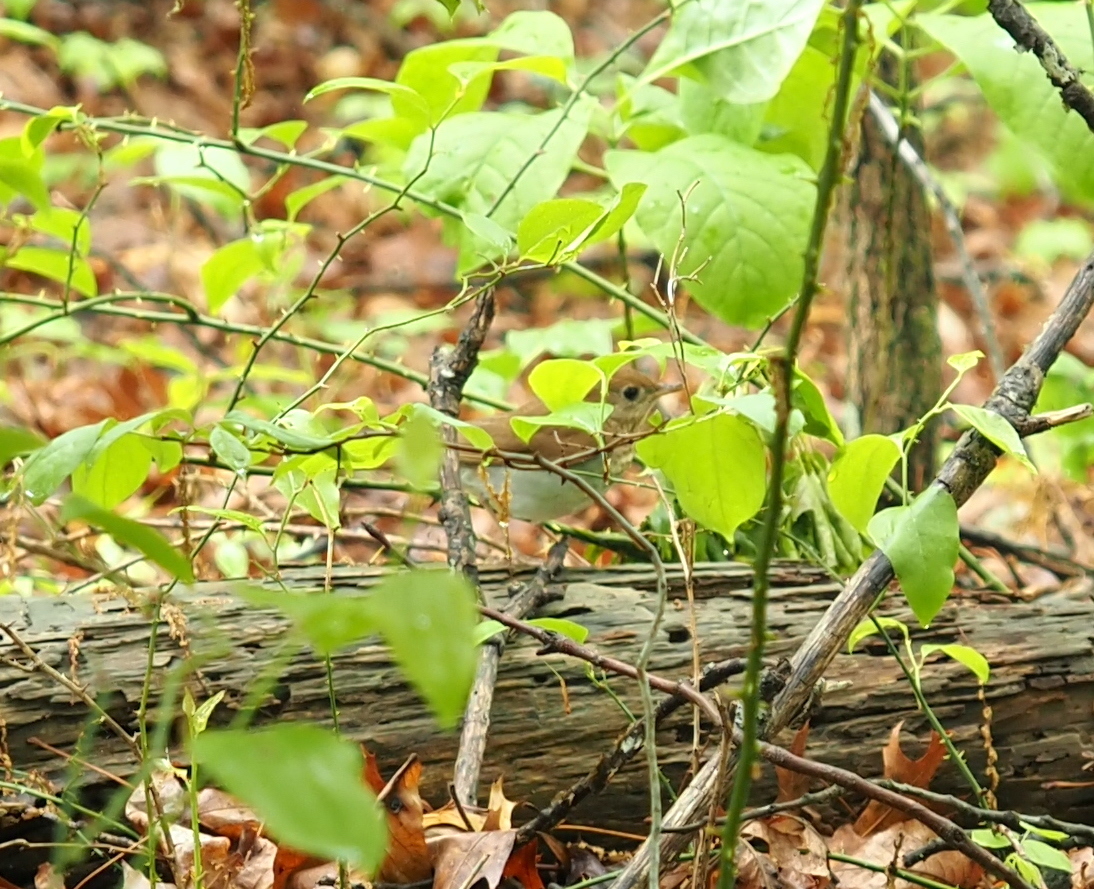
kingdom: Animalia
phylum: Chordata
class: Aves
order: Passeriformes
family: Turdidae
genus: Catharus
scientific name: Catharus fuscescens
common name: Veery
